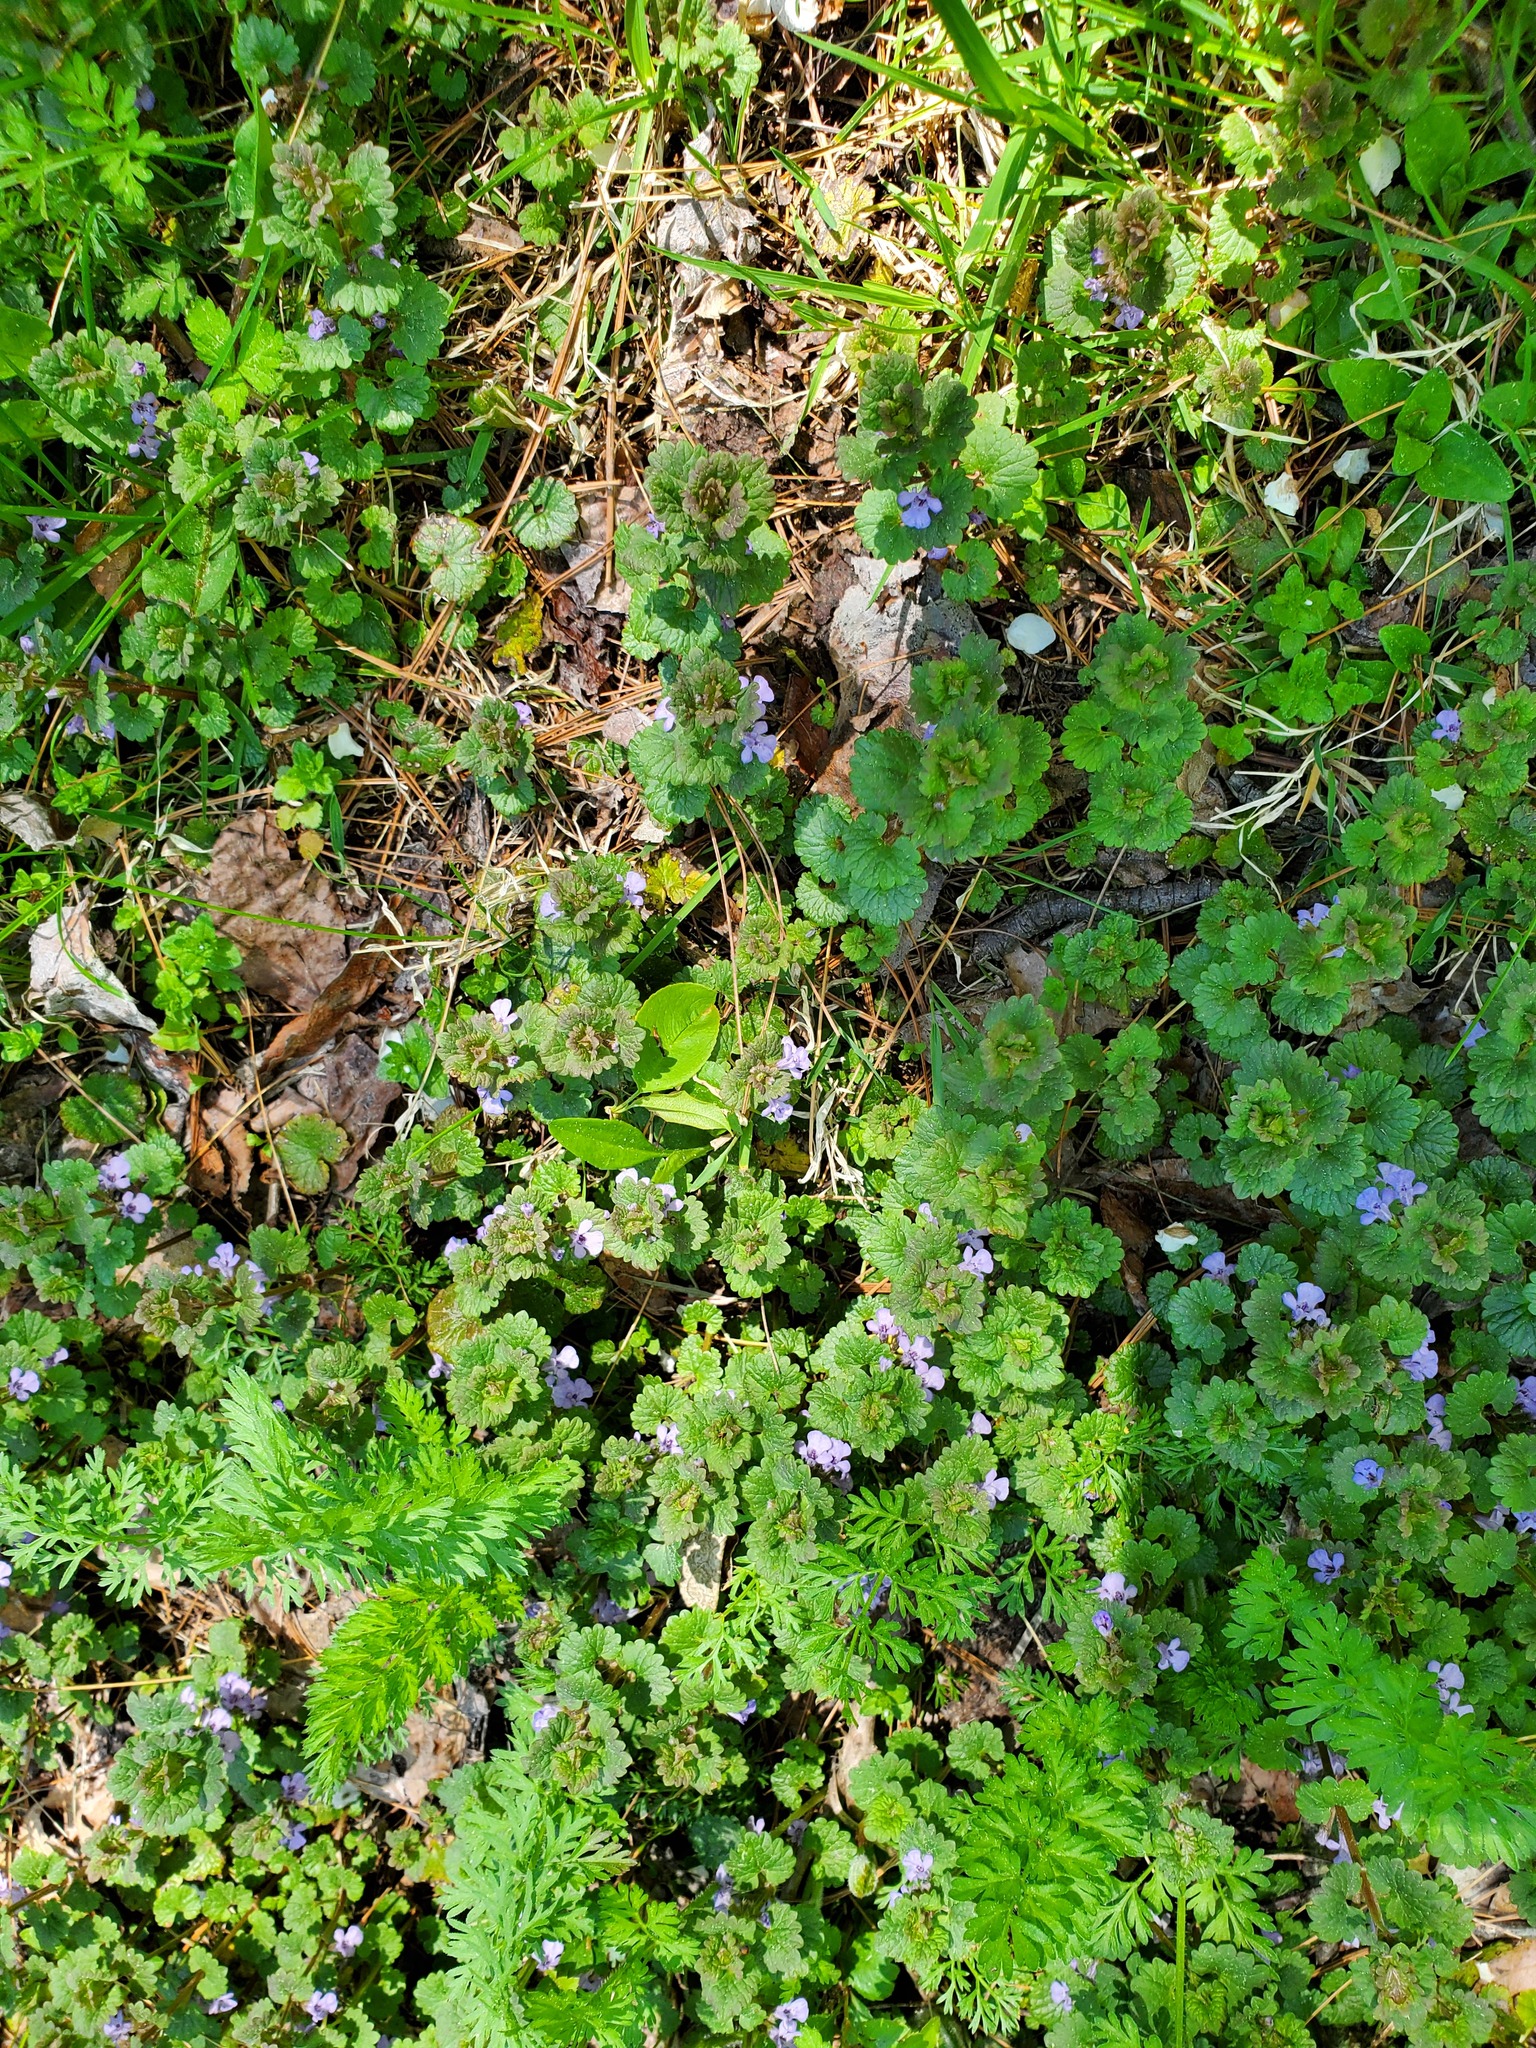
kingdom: Plantae
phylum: Tracheophyta
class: Magnoliopsida
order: Lamiales
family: Lamiaceae
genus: Glechoma
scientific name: Glechoma hederacea
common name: Ground ivy
